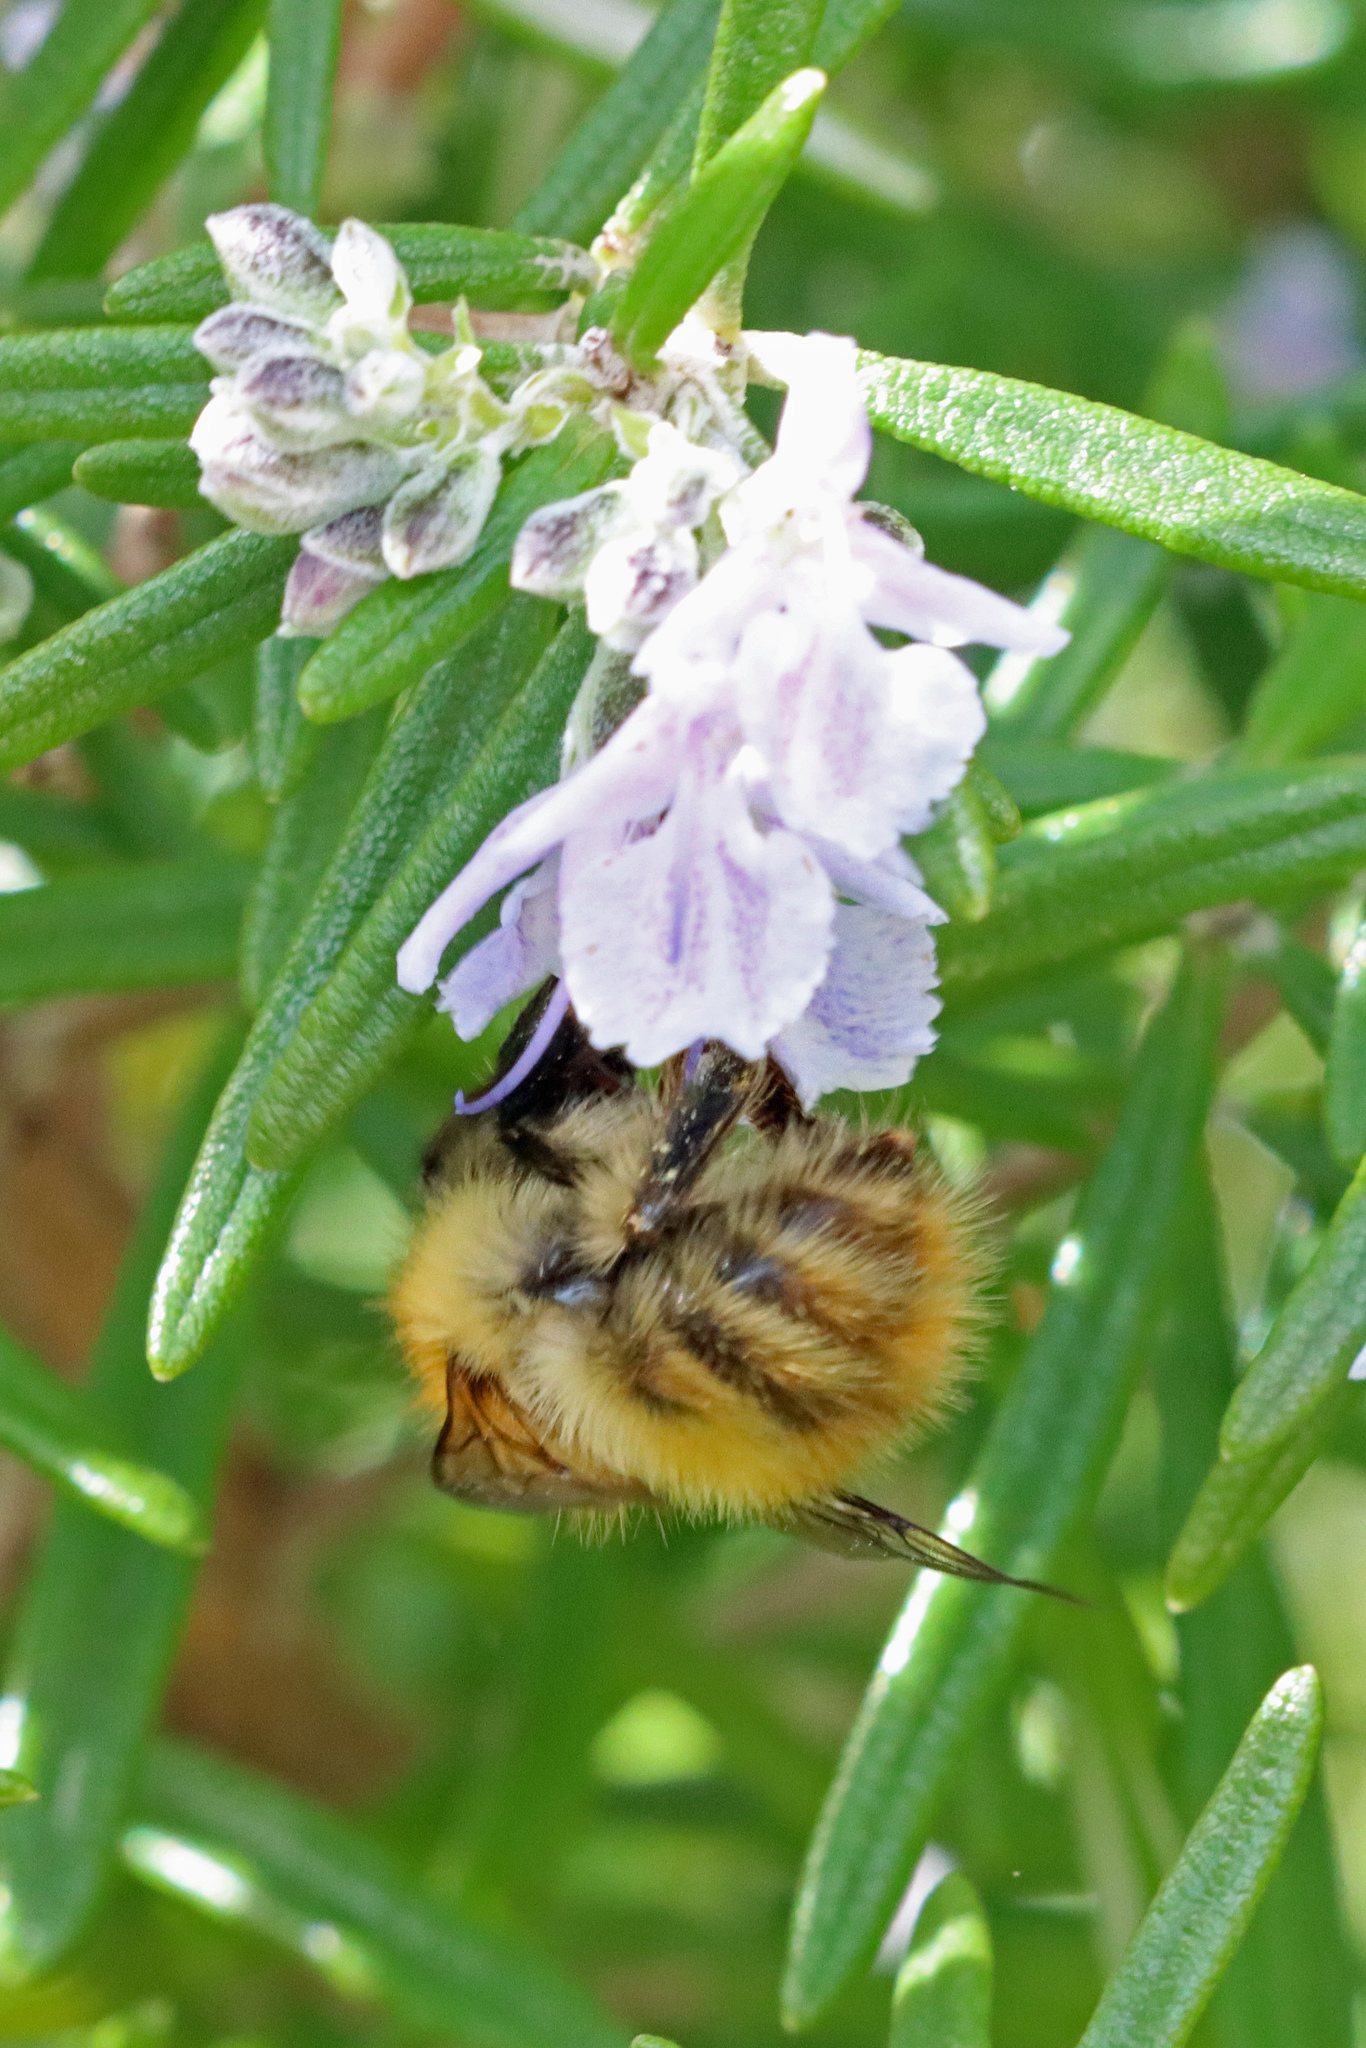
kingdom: Animalia
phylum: Arthropoda
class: Insecta
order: Hymenoptera
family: Apidae
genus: Bombus
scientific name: Bombus pascuorum
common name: Common carder bee
